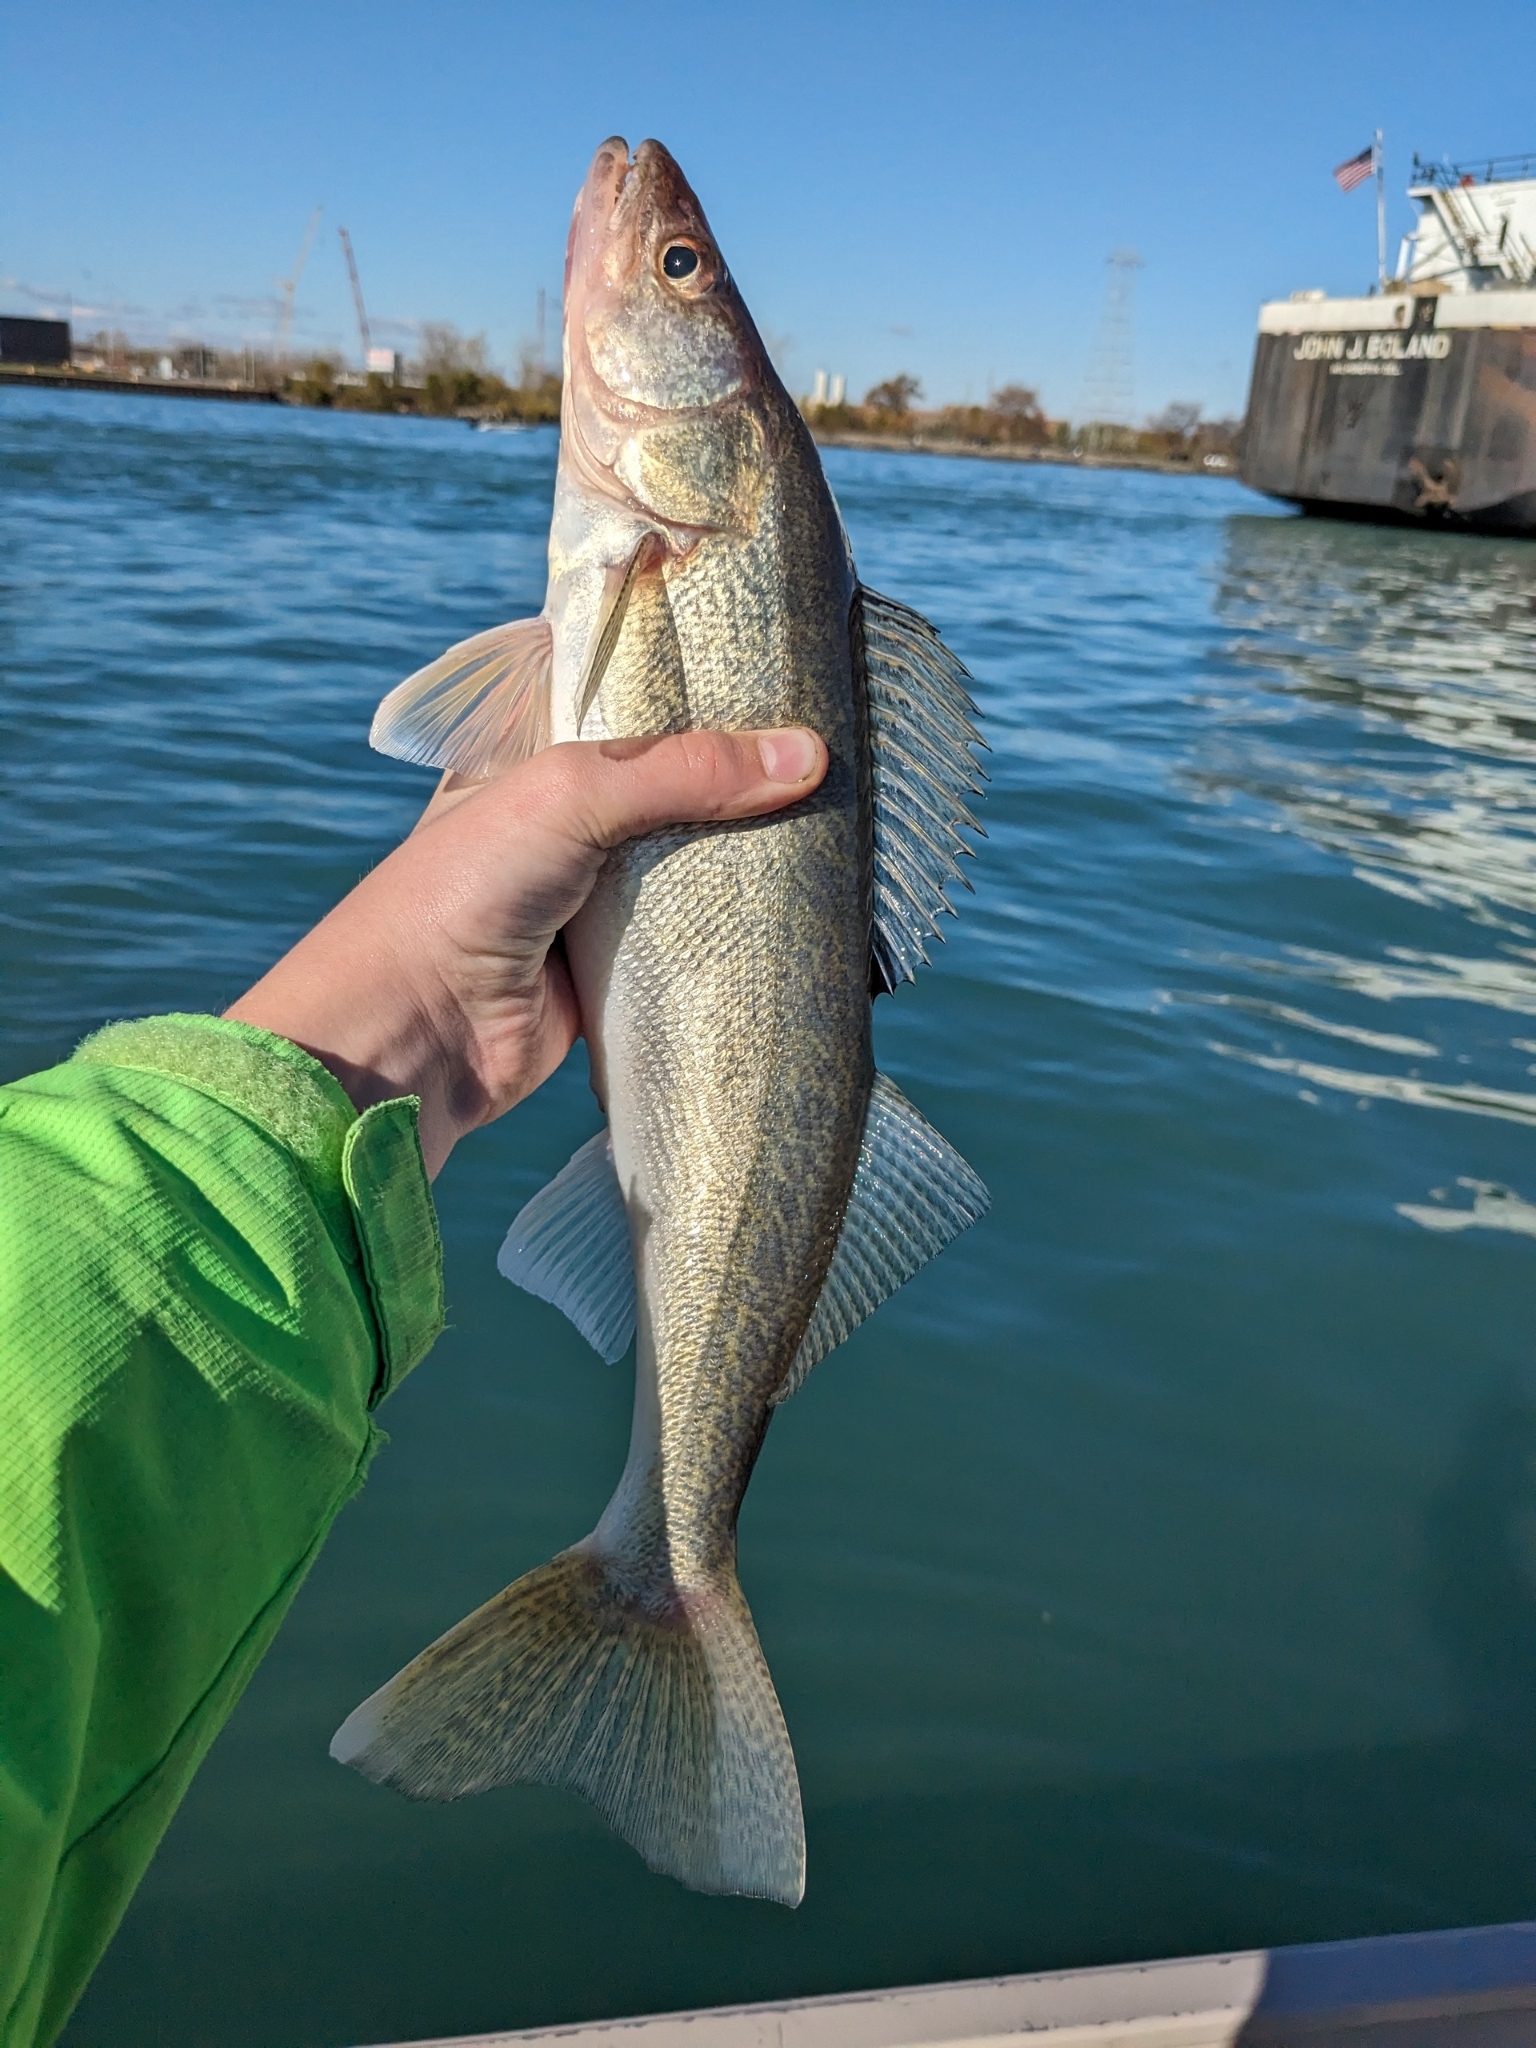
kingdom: Animalia
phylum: Chordata
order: Perciformes
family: Percidae
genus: Sander
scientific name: Sander vitreus
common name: Walleye
